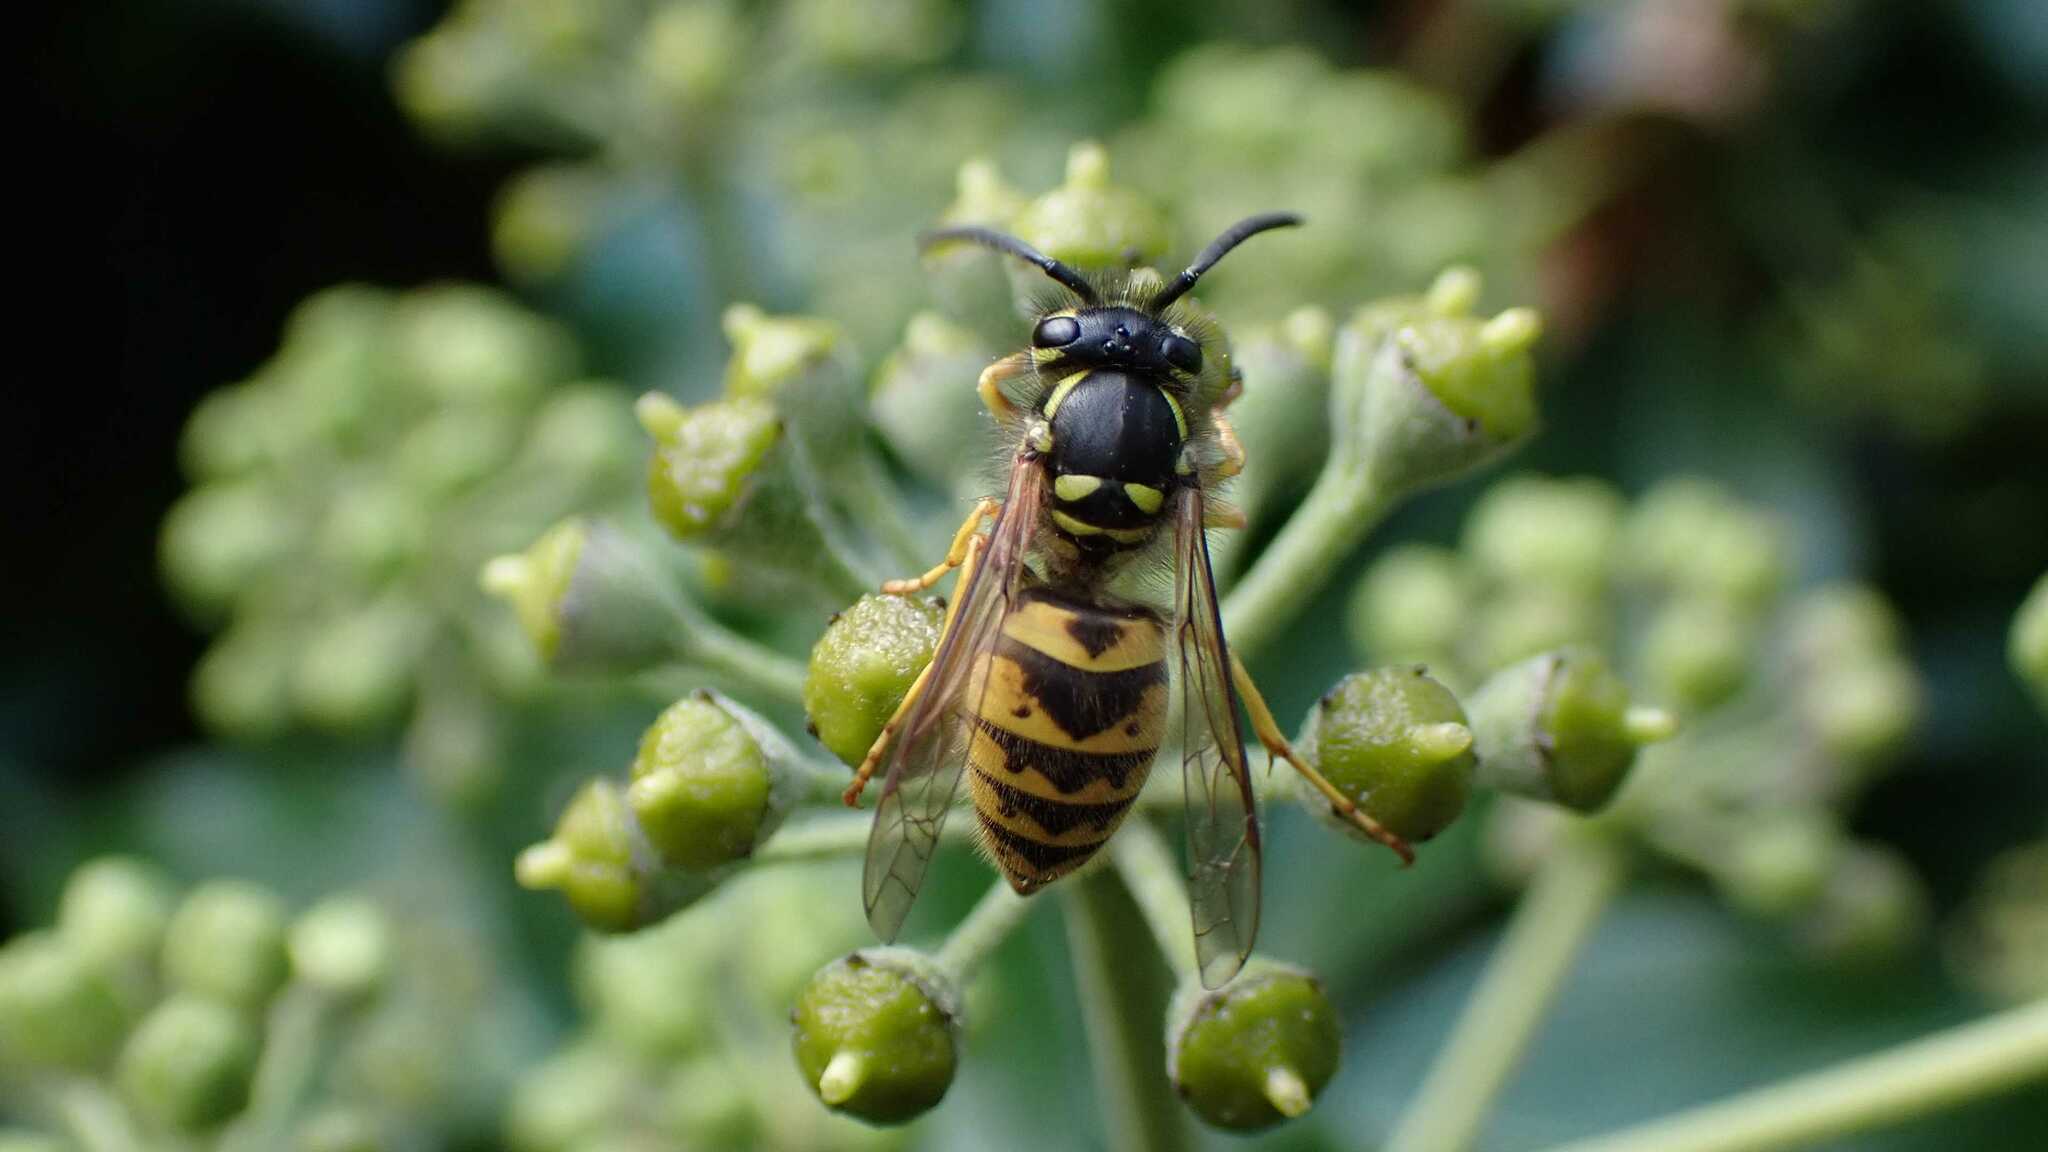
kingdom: Animalia
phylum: Arthropoda
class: Insecta
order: Hymenoptera
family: Vespidae
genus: Vespula
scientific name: Vespula vulgaris
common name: Common wasp
